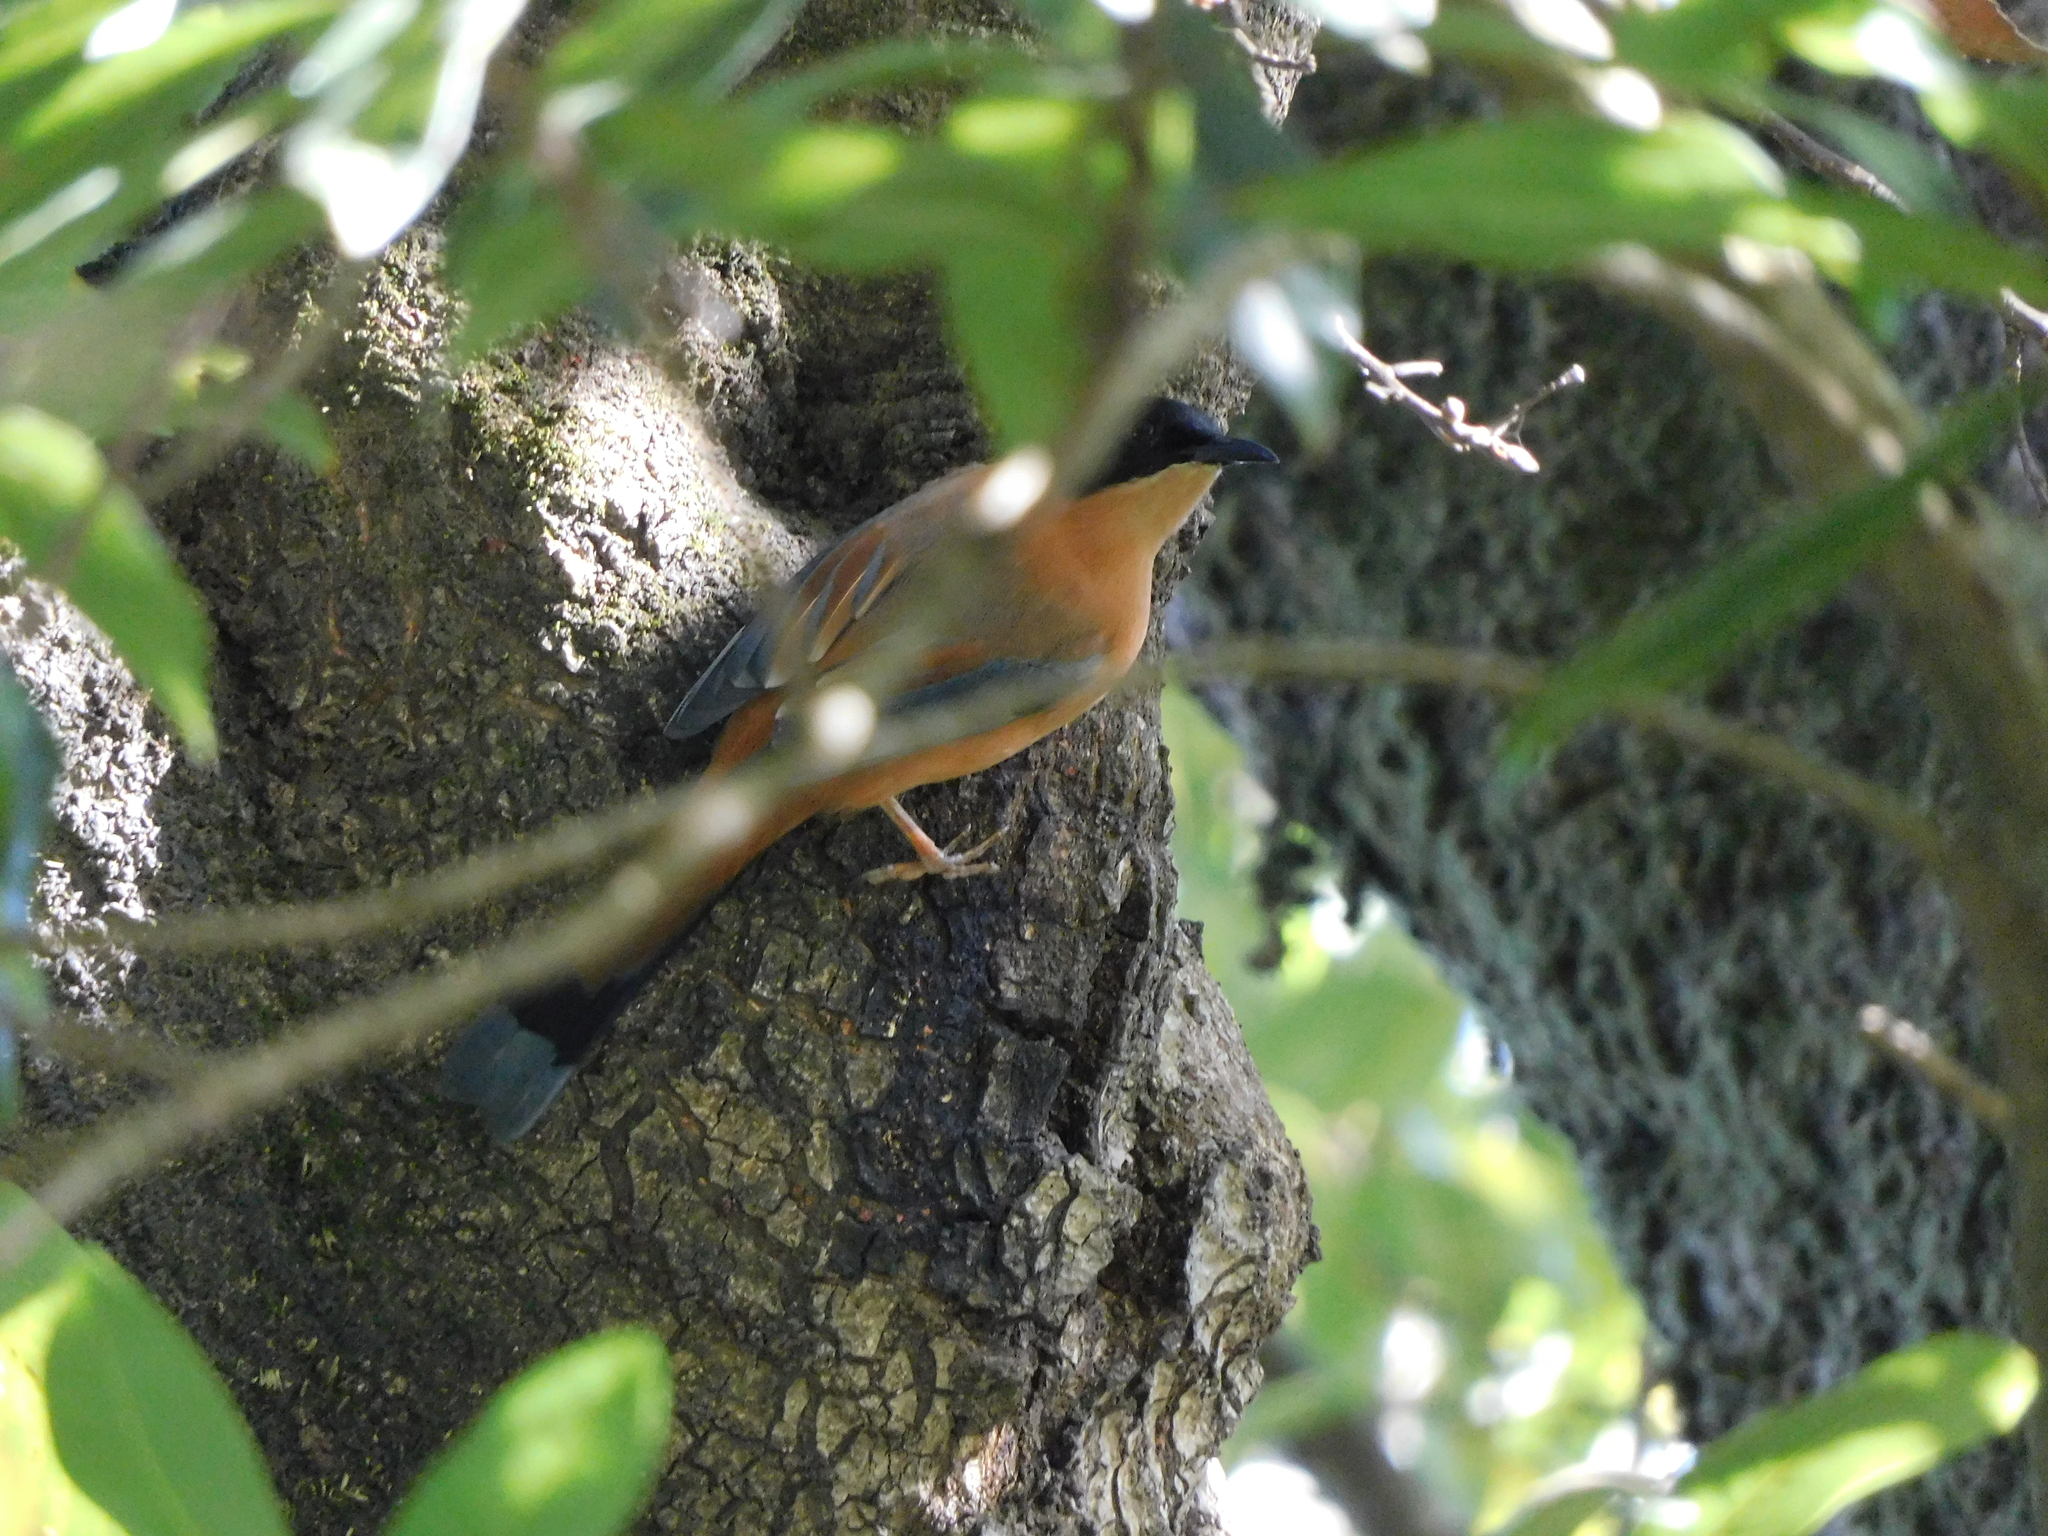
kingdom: Animalia
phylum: Chordata
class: Aves
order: Passeriformes
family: Leiothrichidae
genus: Heterophasia
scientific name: Heterophasia capistrata
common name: Rufous sibia
